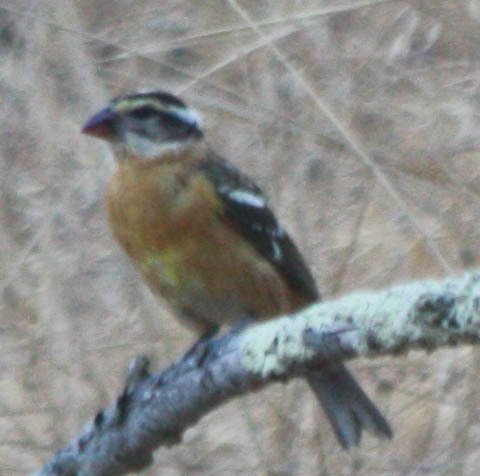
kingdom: Animalia
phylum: Chordata
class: Aves
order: Passeriformes
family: Cardinalidae
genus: Pheucticus
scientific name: Pheucticus melanocephalus
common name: Black-headed grosbeak
